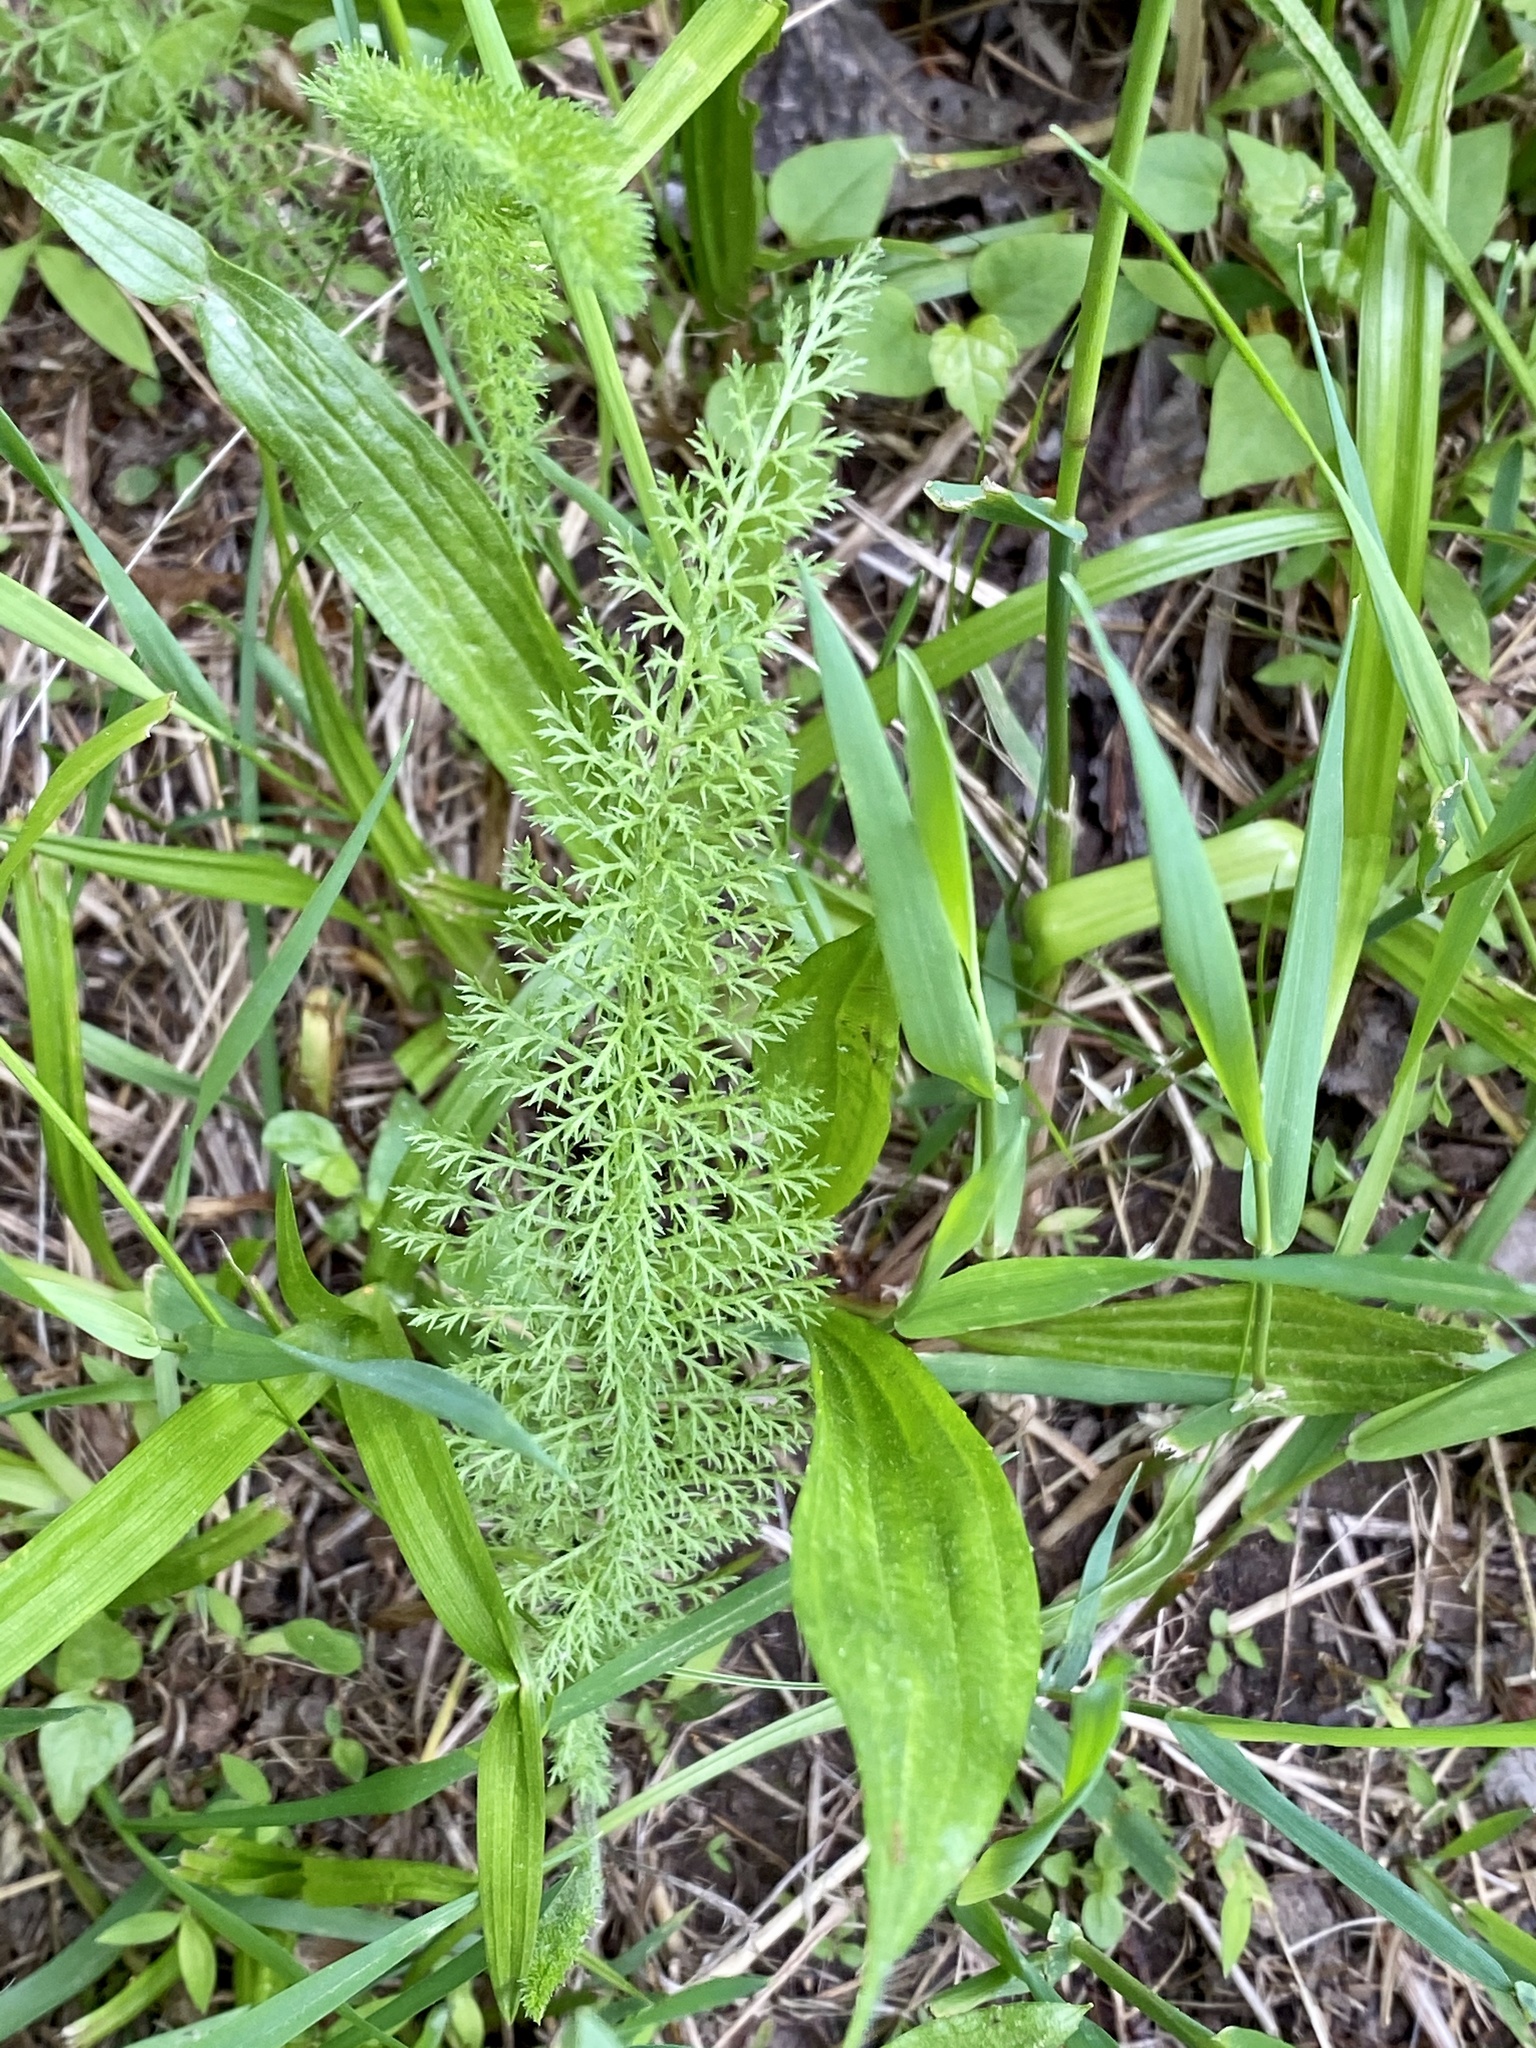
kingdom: Plantae
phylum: Tracheophyta
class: Magnoliopsida
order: Asterales
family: Asteraceae
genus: Achillea
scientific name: Achillea millefolium
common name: Yarrow
